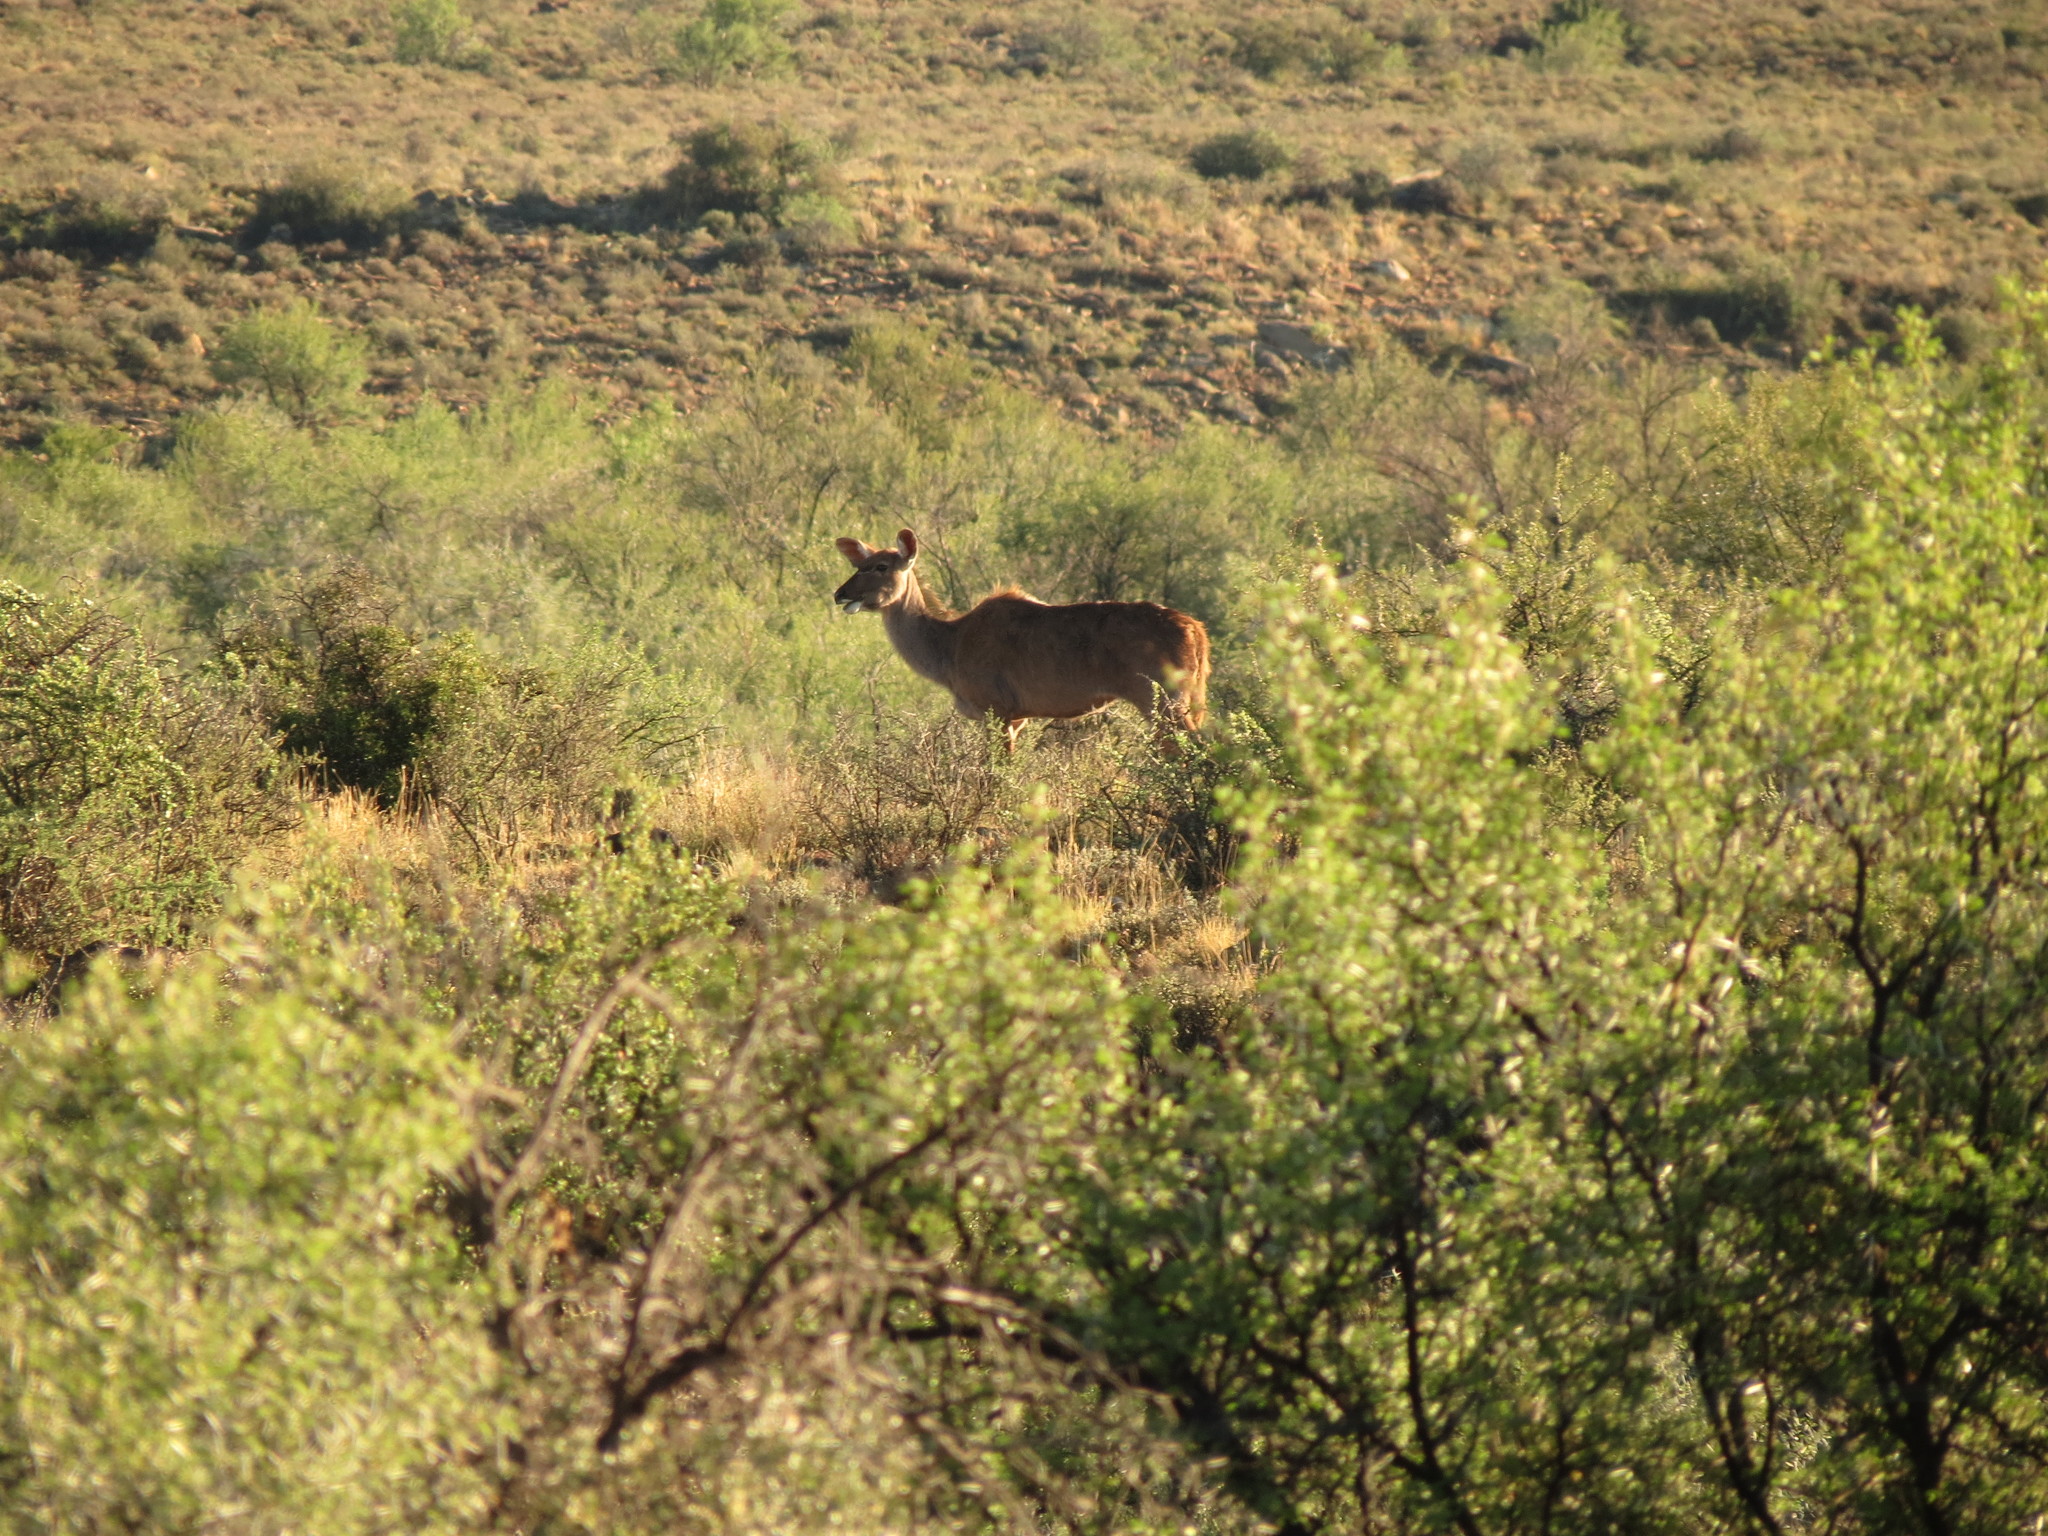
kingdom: Animalia
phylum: Chordata
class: Mammalia
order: Artiodactyla
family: Bovidae
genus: Tragelaphus
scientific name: Tragelaphus strepsiceros
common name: Greater kudu
